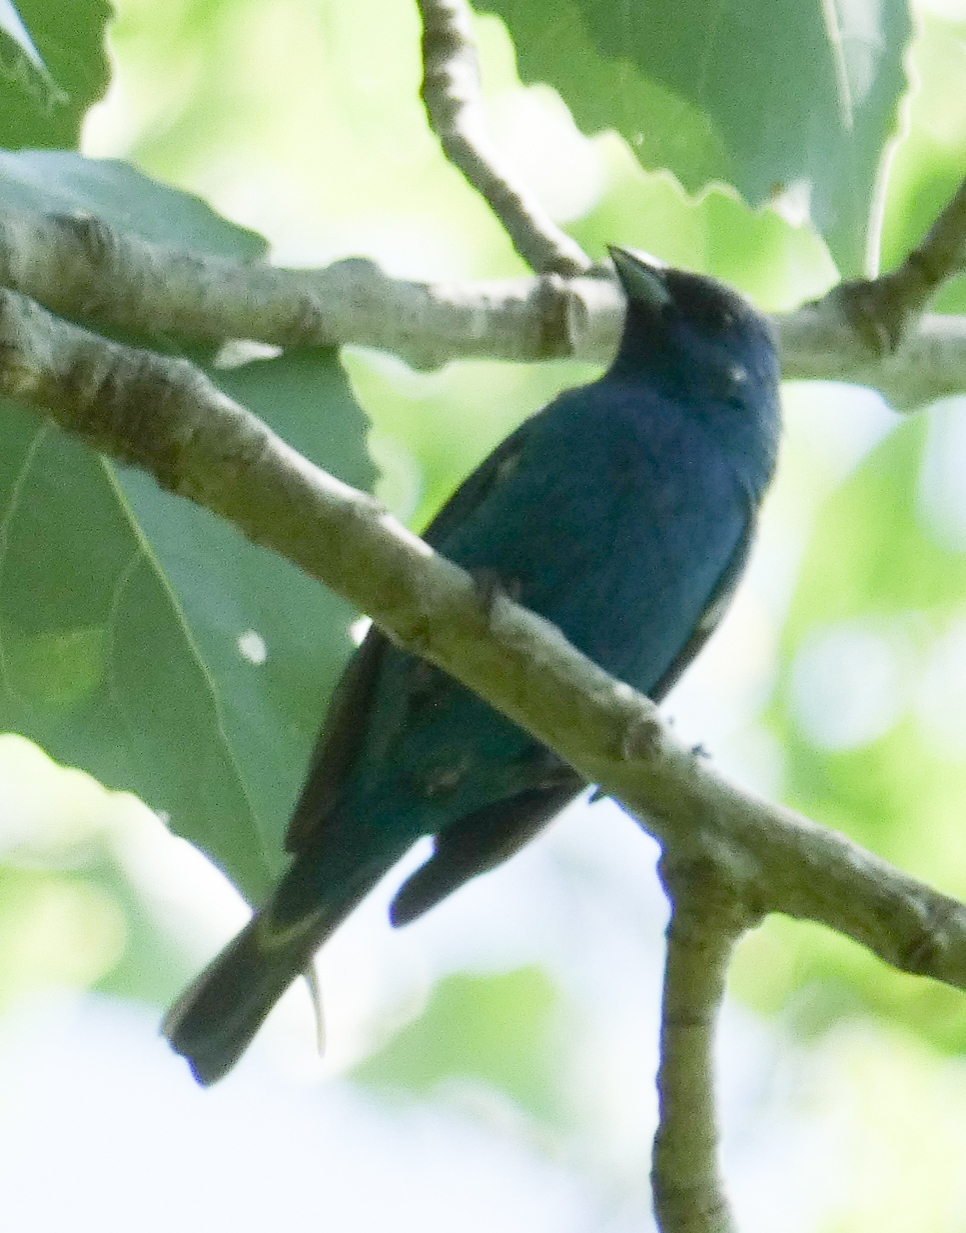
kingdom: Animalia
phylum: Chordata
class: Aves
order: Passeriformes
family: Cardinalidae
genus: Passerina
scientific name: Passerina cyanea
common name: Indigo bunting
